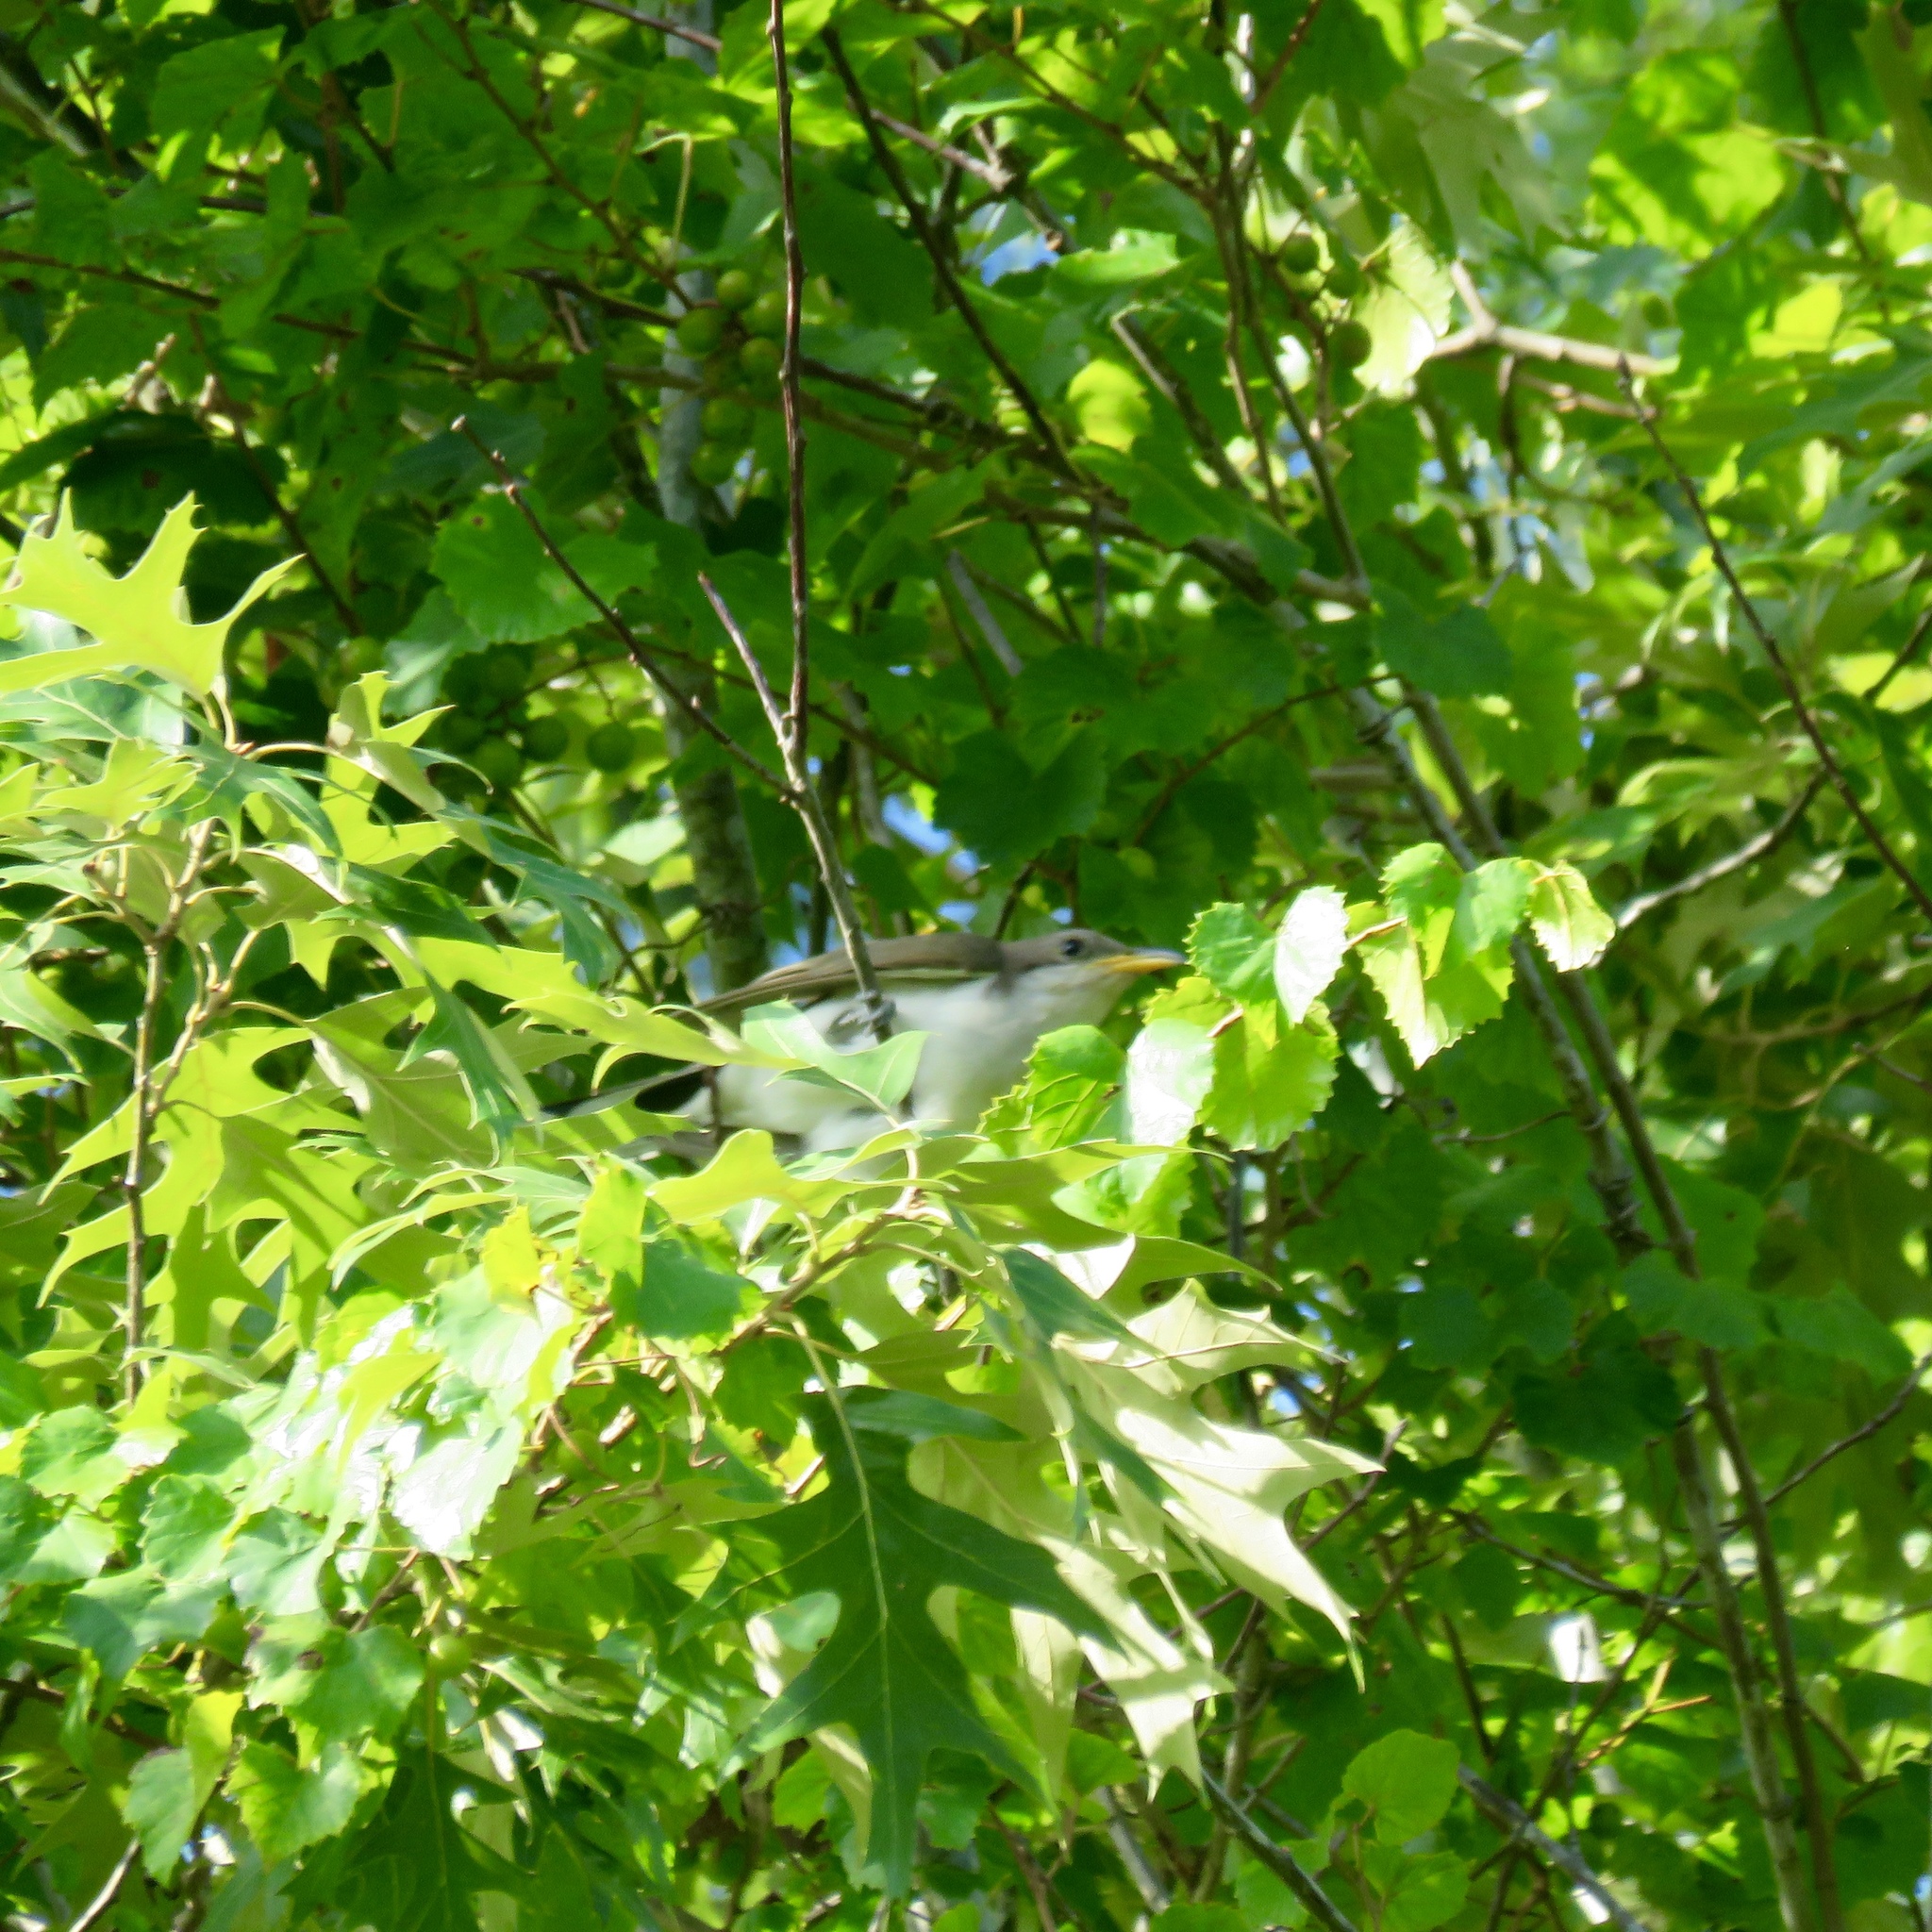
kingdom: Animalia
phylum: Chordata
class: Aves
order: Cuculiformes
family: Cuculidae
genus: Coccyzus
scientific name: Coccyzus americanus
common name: Yellow-billed cuckoo
